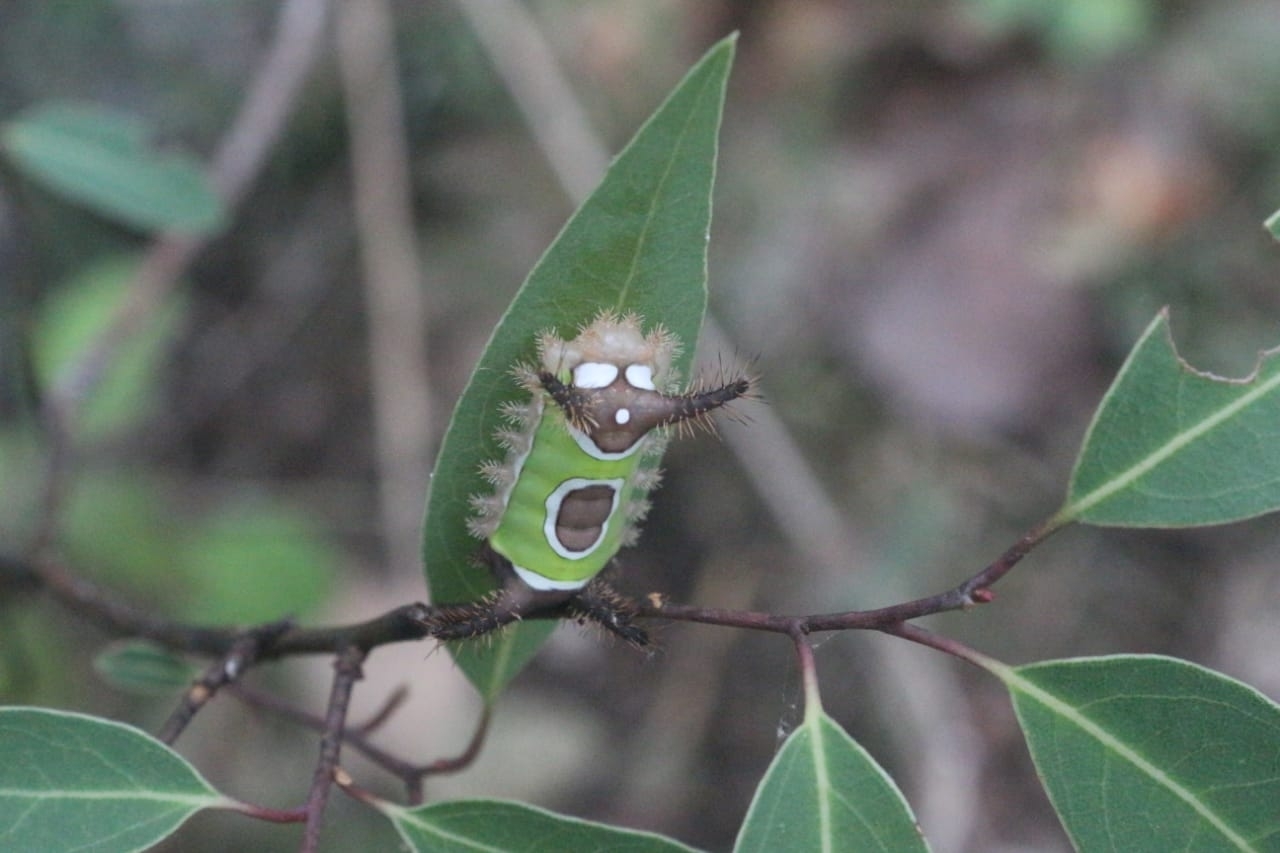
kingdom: Animalia
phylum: Arthropoda
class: Insecta
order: Lepidoptera
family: Limacodidae
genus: Acharia
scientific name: Acharia stimulea
